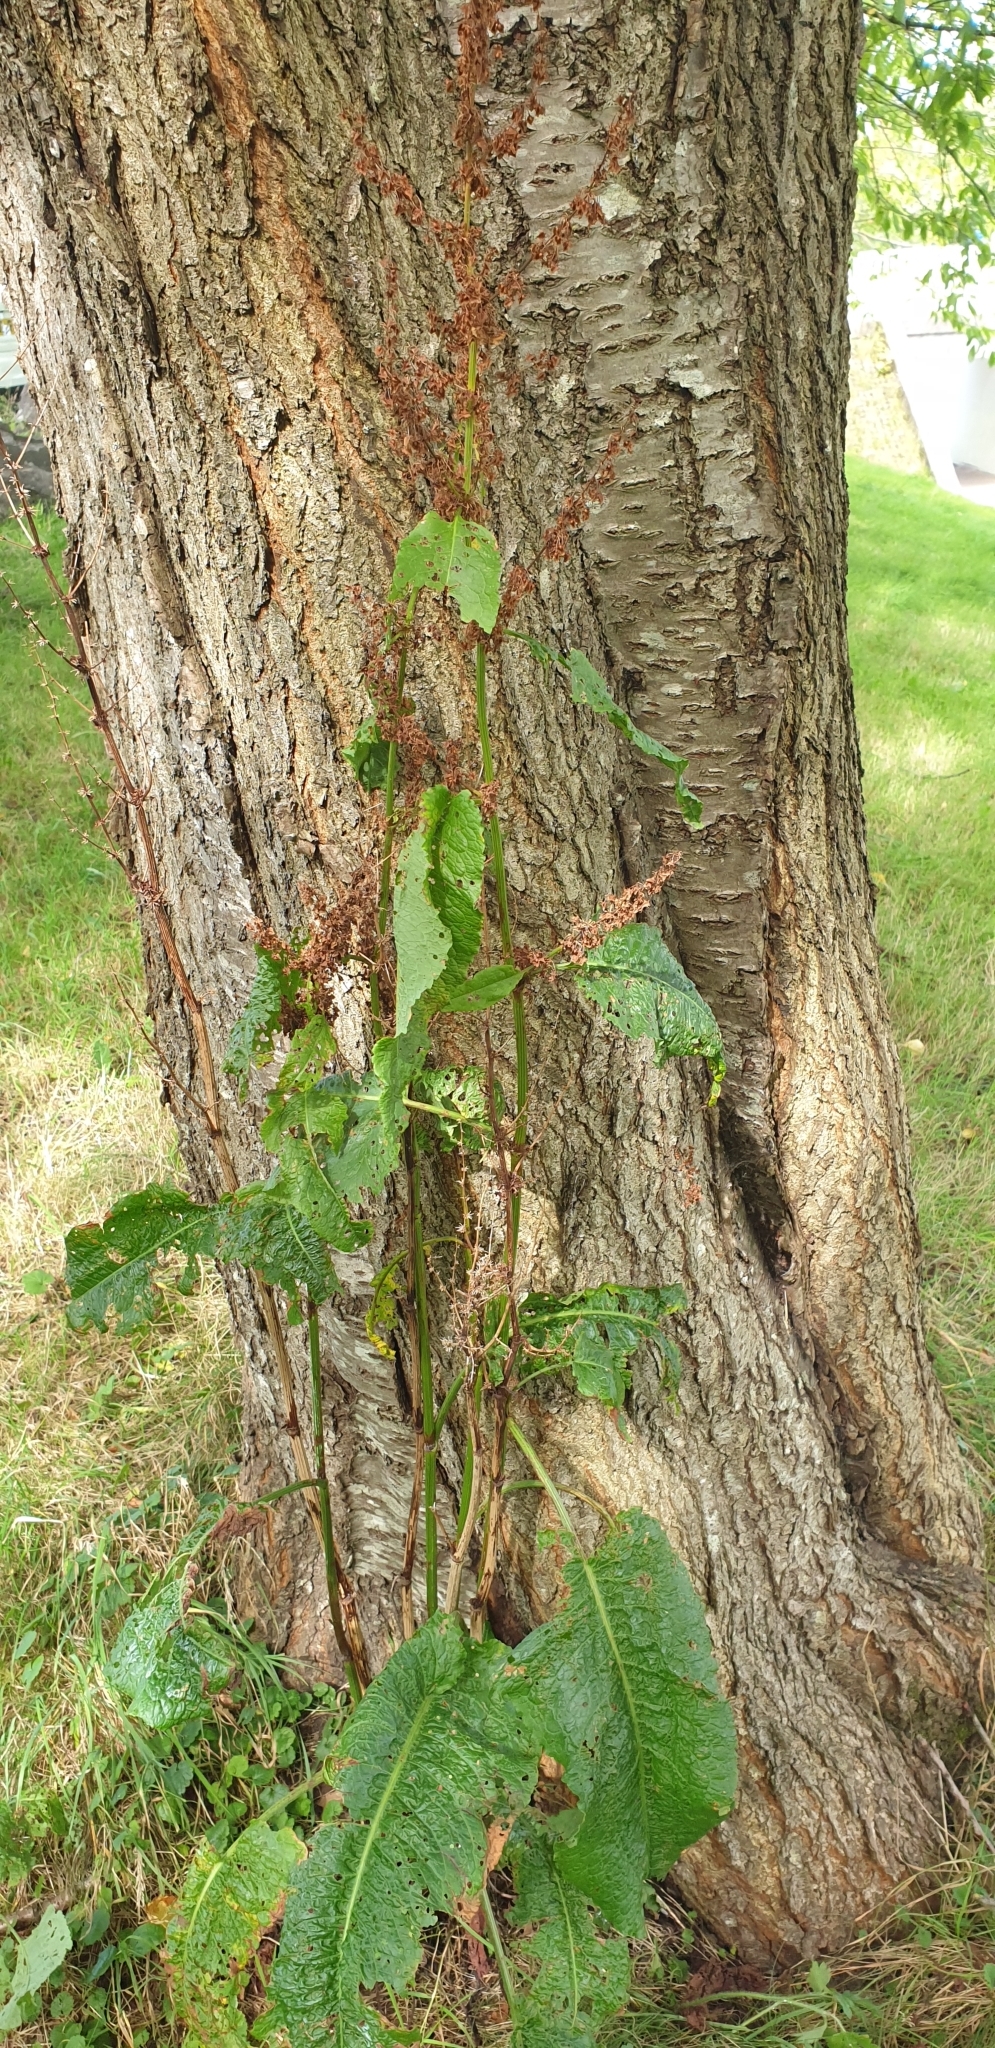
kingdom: Plantae
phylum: Tracheophyta
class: Magnoliopsida
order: Caryophyllales
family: Polygonaceae
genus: Rumex
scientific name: Rumex obtusifolius
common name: Bitter dock
